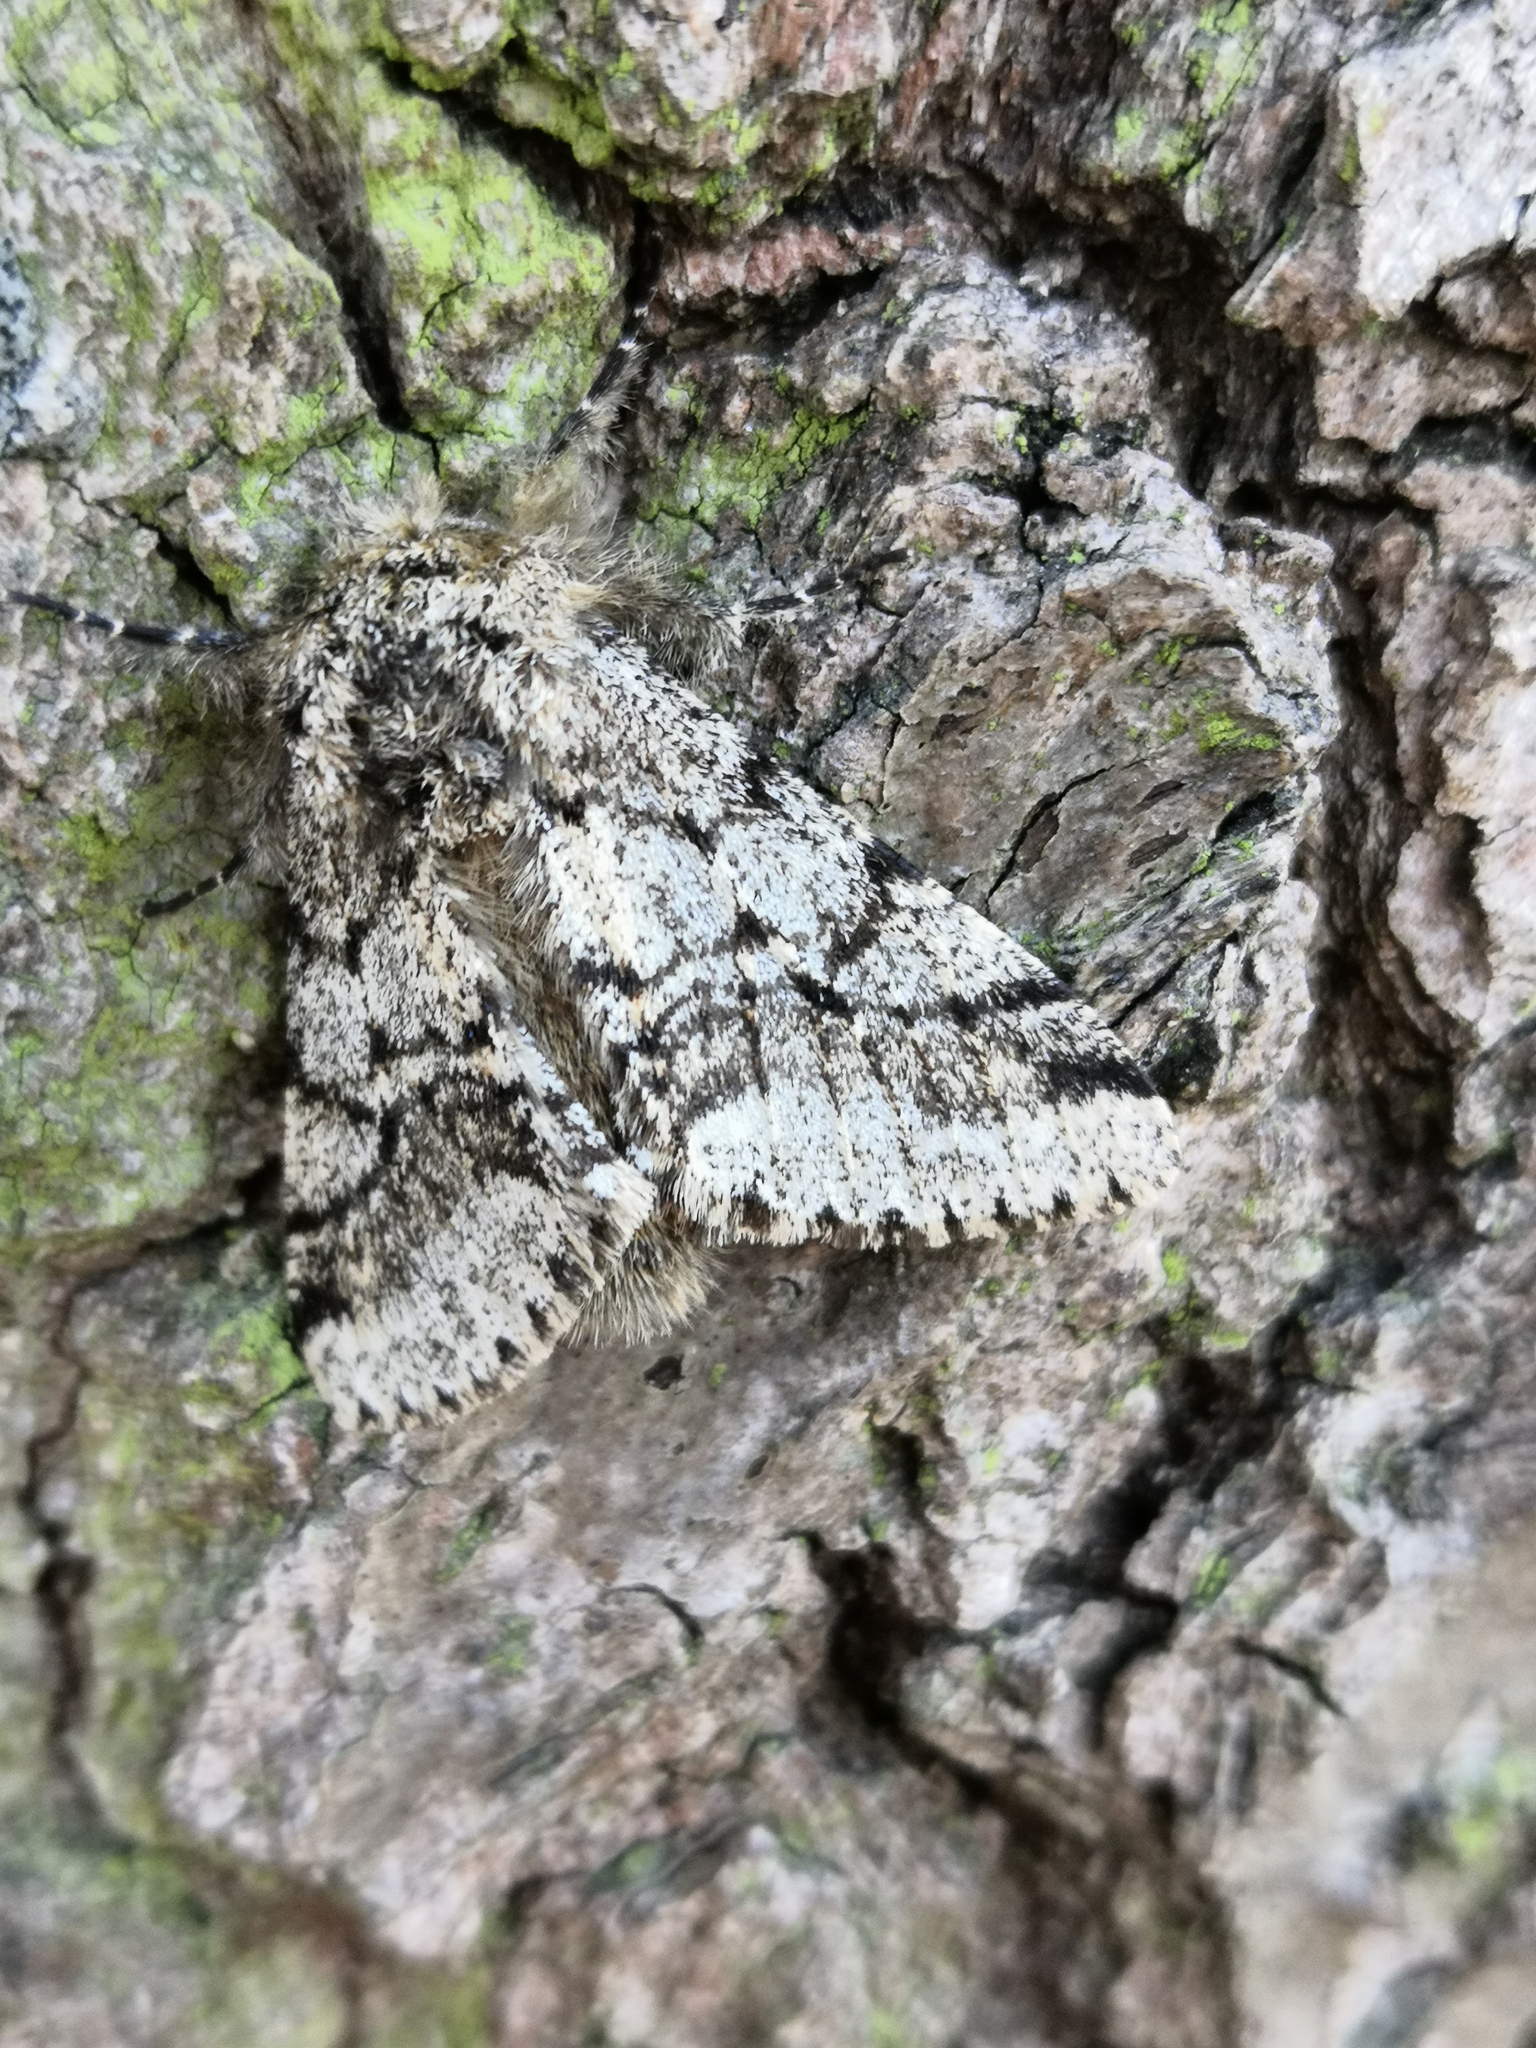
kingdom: Animalia
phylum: Arthropoda
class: Insecta
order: Lepidoptera
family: Geometridae
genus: Lycia
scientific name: Lycia hirtaria
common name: Brindled beauty
